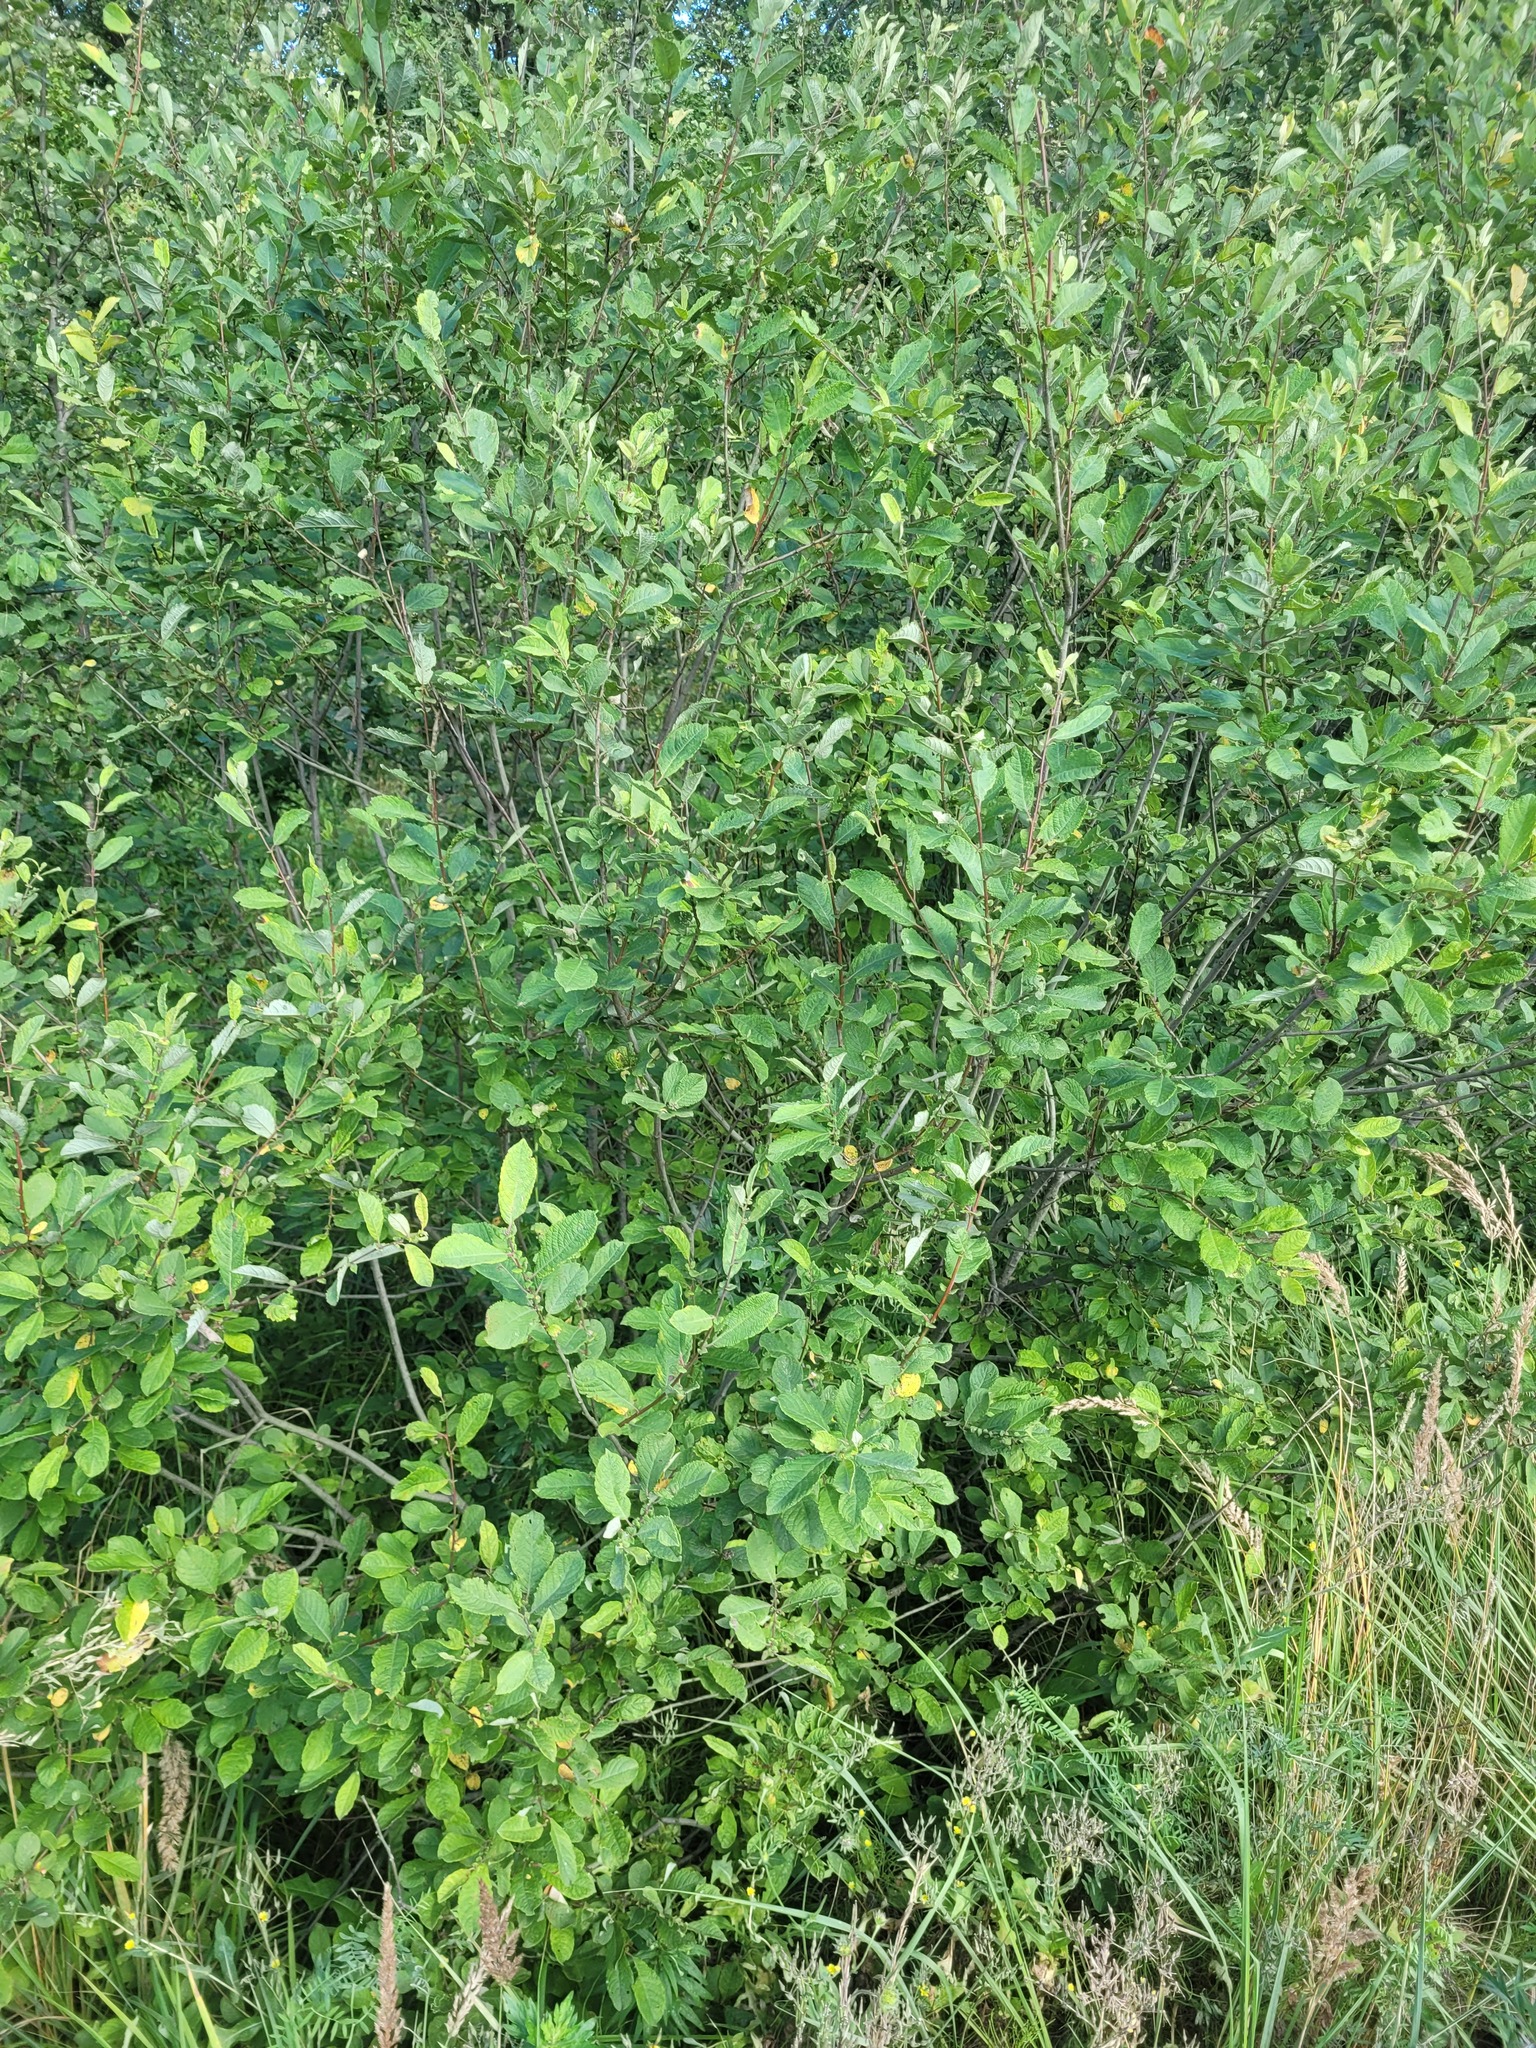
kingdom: Plantae
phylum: Tracheophyta
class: Magnoliopsida
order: Malpighiales
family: Salicaceae
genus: Salix
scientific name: Salix aurita
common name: Eared willow
